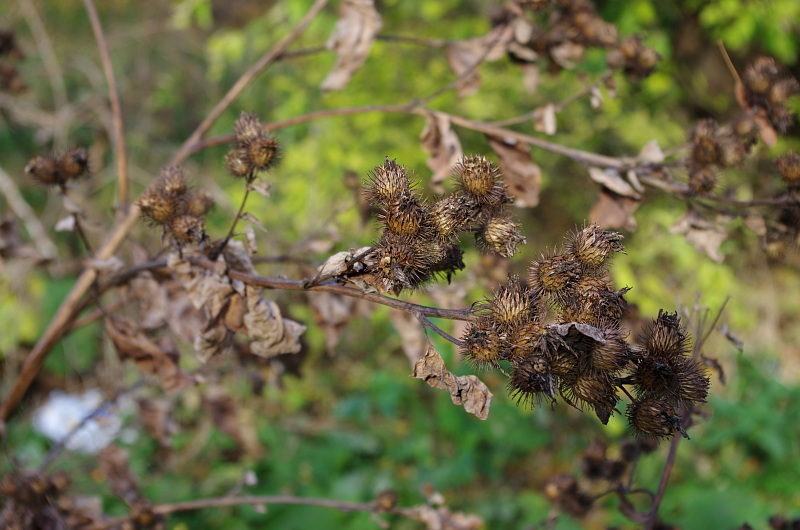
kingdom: Plantae
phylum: Tracheophyta
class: Magnoliopsida
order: Asterales
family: Asteraceae
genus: Arctium
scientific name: Arctium minus
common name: Lesser burdock
